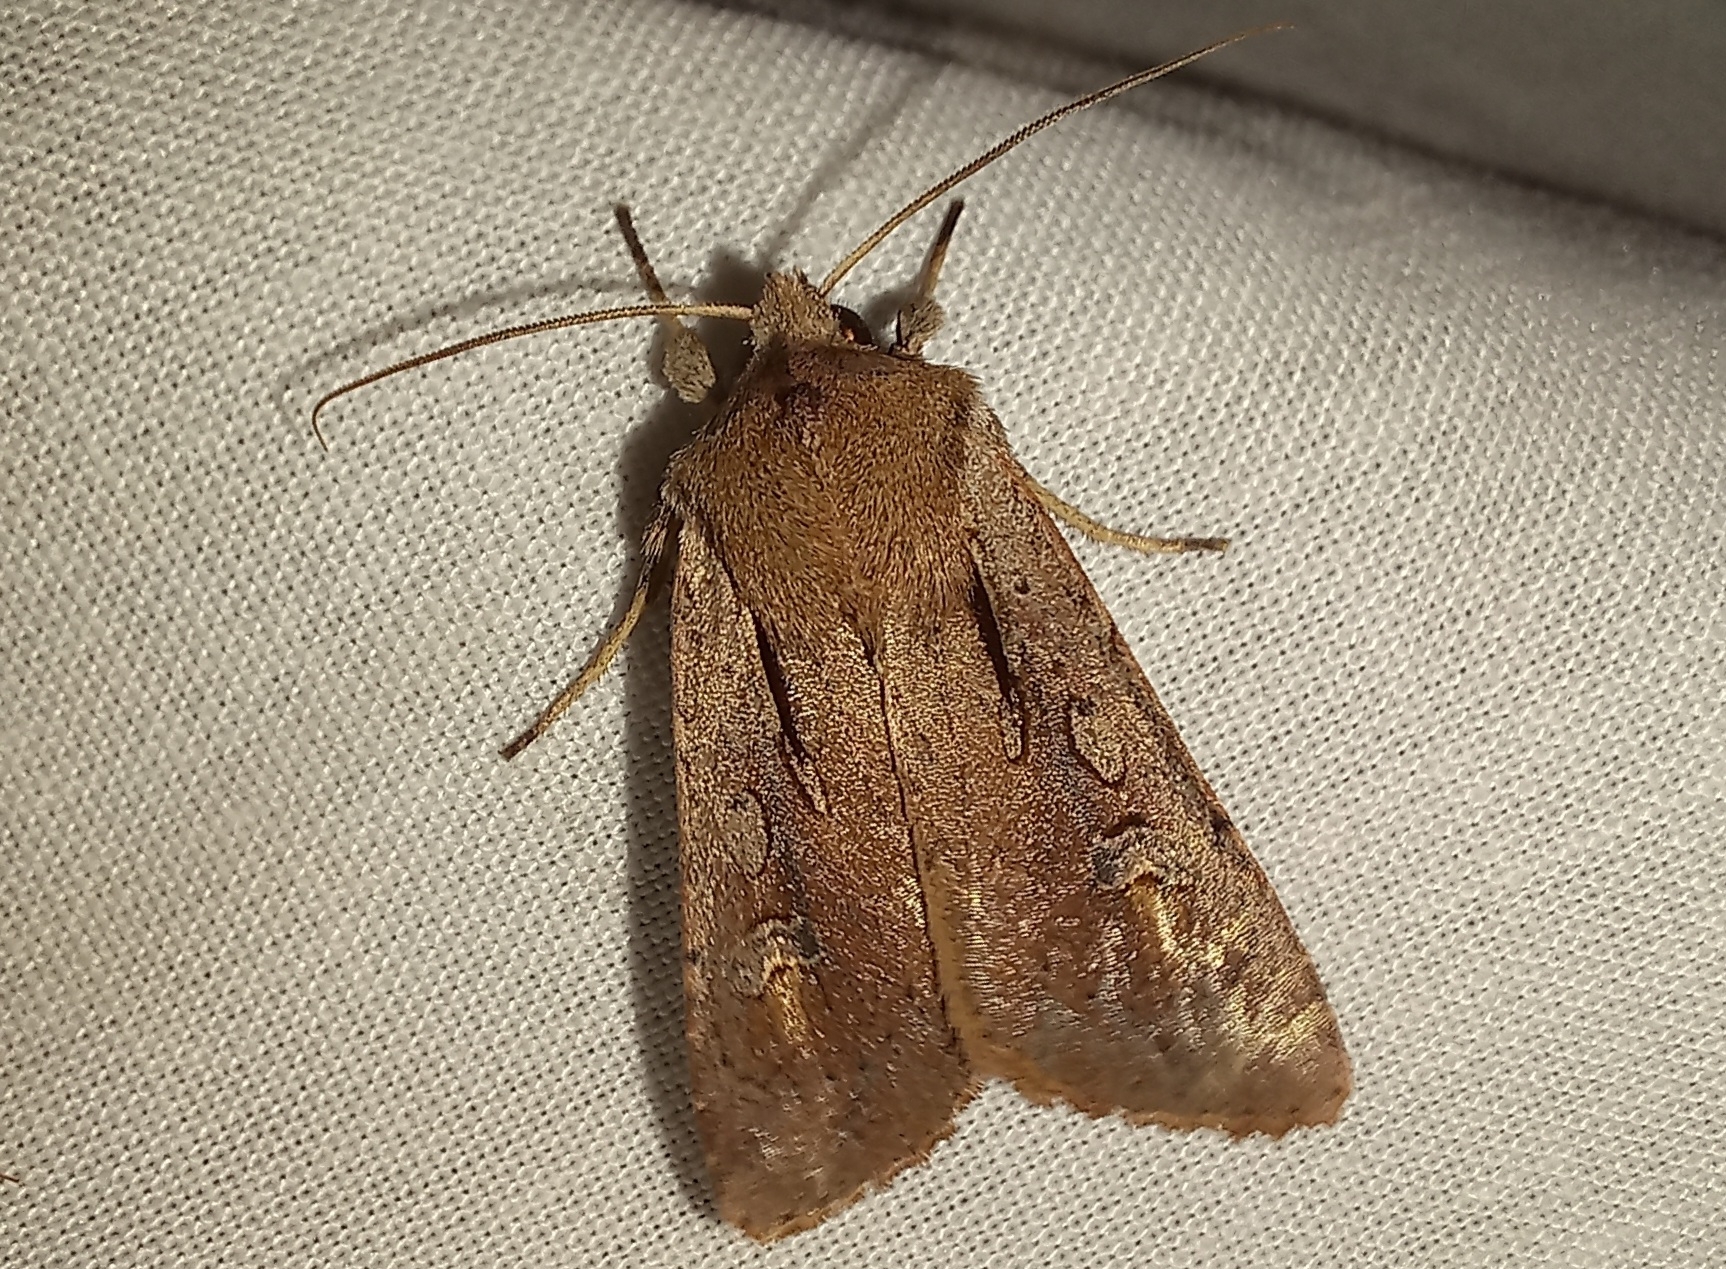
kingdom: Animalia
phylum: Arthropoda
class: Insecta
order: Lepidoptera
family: Noctuidae
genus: Ichneutica
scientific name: Ichneutica atristriga
